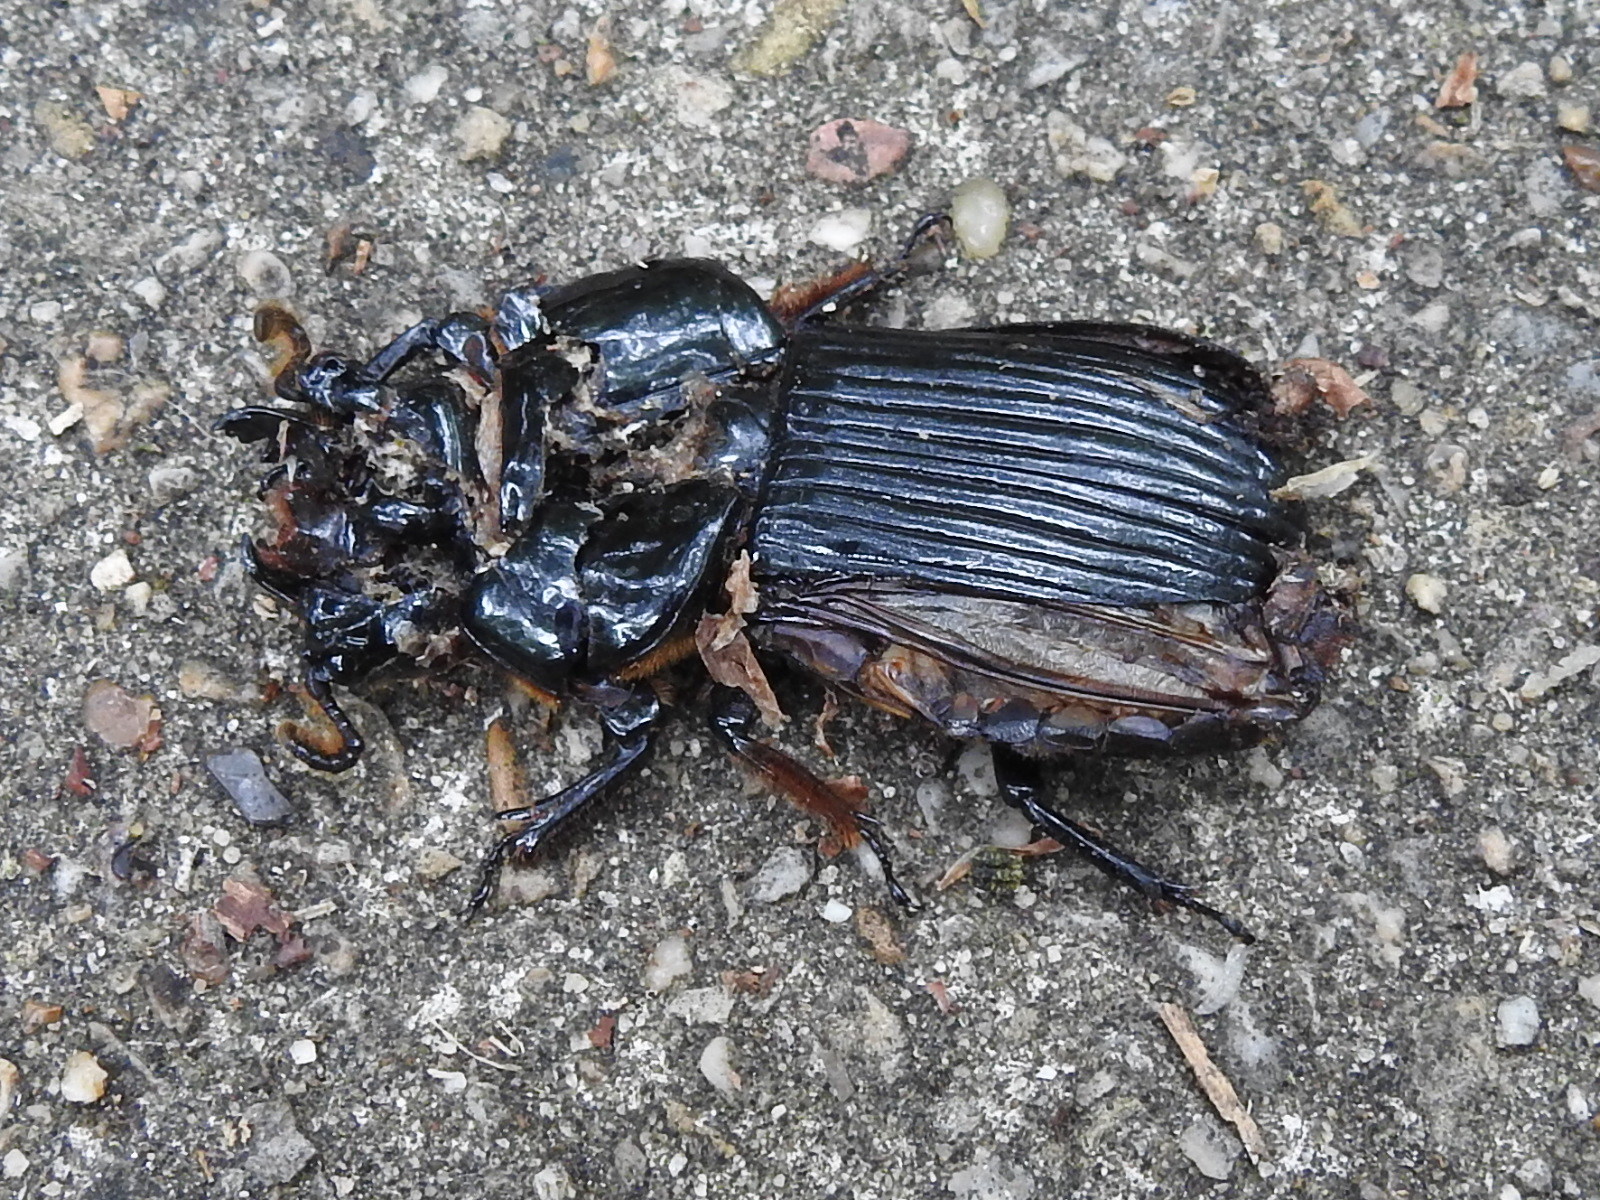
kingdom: Animalia
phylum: Arthropoda
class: Insecta
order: Coleoptera
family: Passalidae
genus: Odontotaenius
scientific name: Odontotaenius disjunctus
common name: Patent leather beetle
